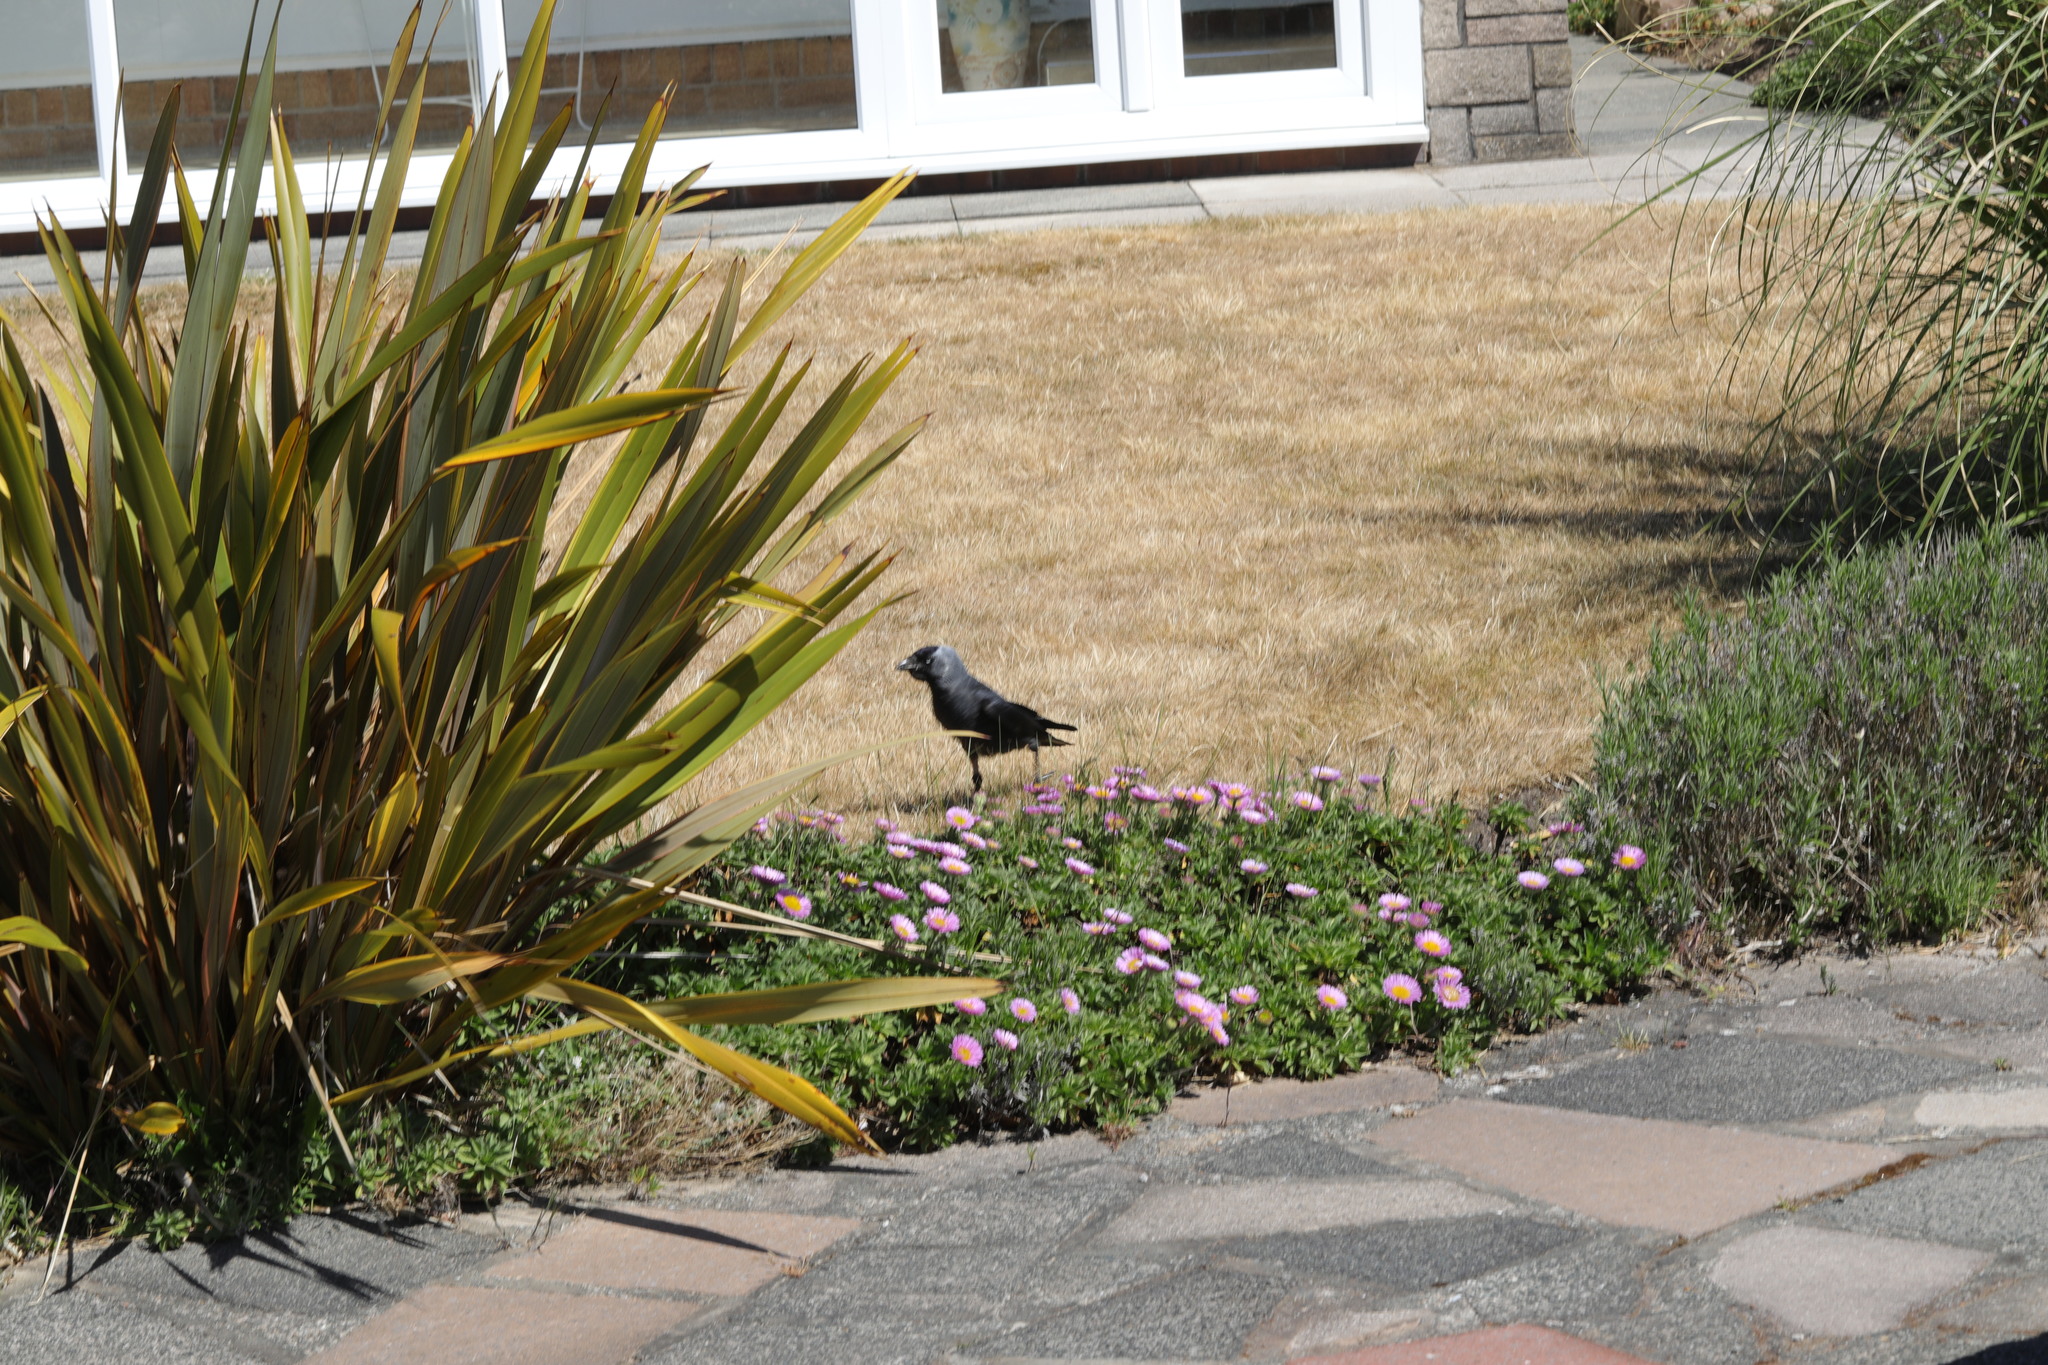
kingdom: Animalia
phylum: Chordata
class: Aves
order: Passeriformes
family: Corvidae
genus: Coloeus
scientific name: Coloeus monedula
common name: Western jackdaw
